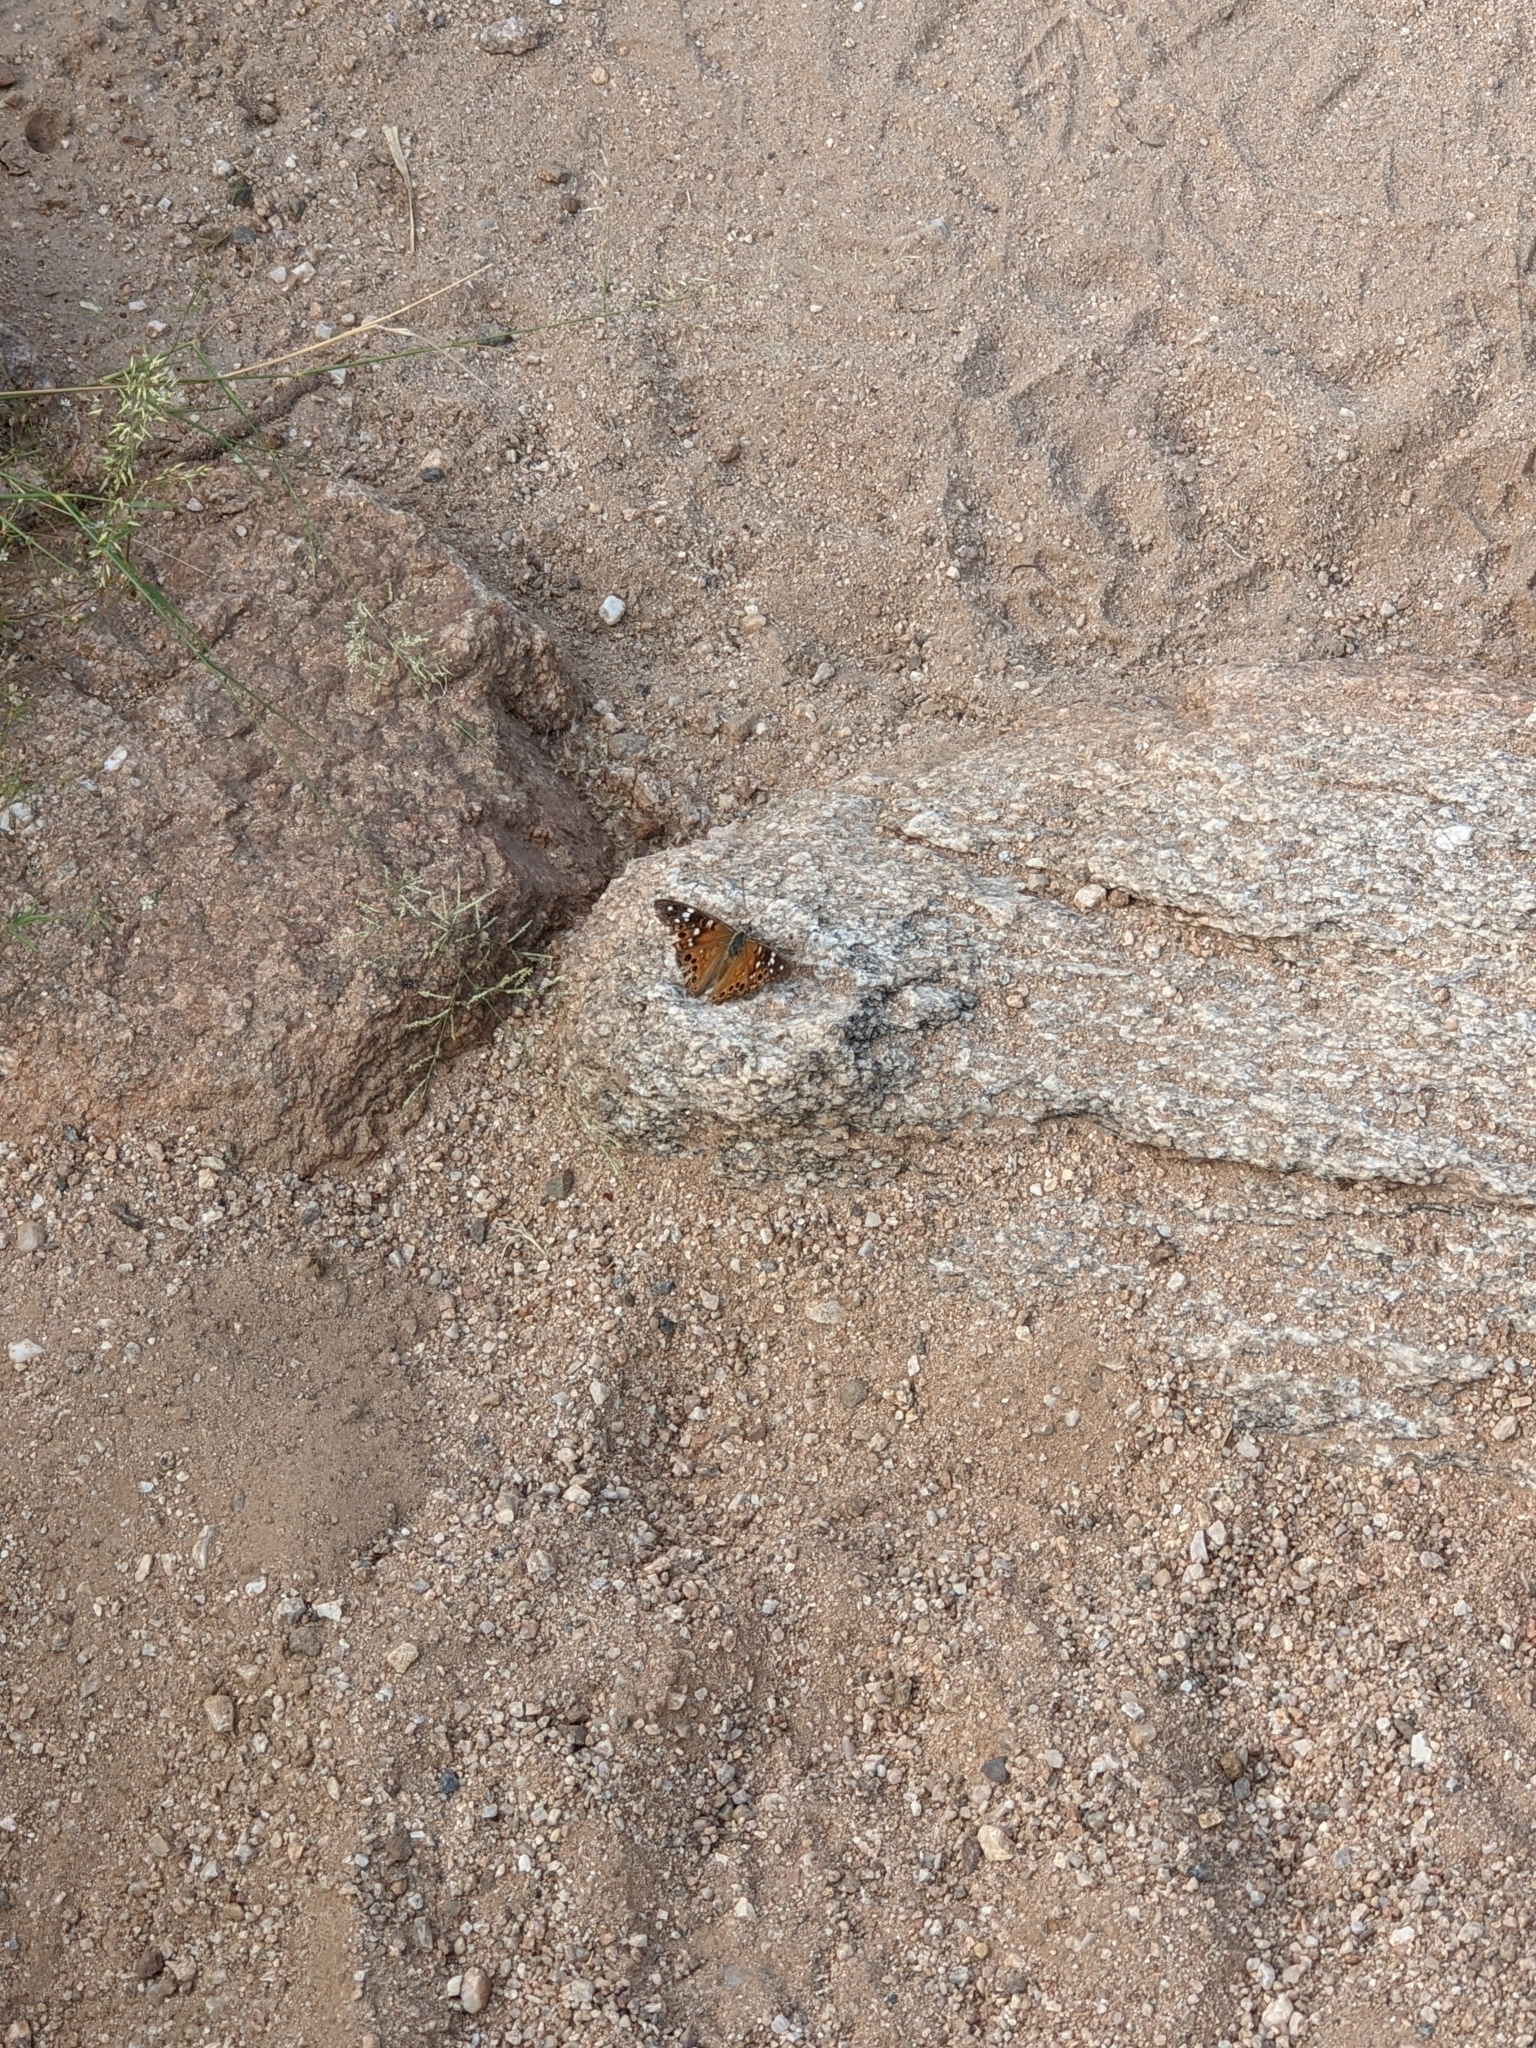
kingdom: Animalia
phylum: Arthropoda
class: Insecta
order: Lepidoptera
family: Nymphalidae
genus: Asterocampa
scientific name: Asterocampa leilia
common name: Empress leilia
